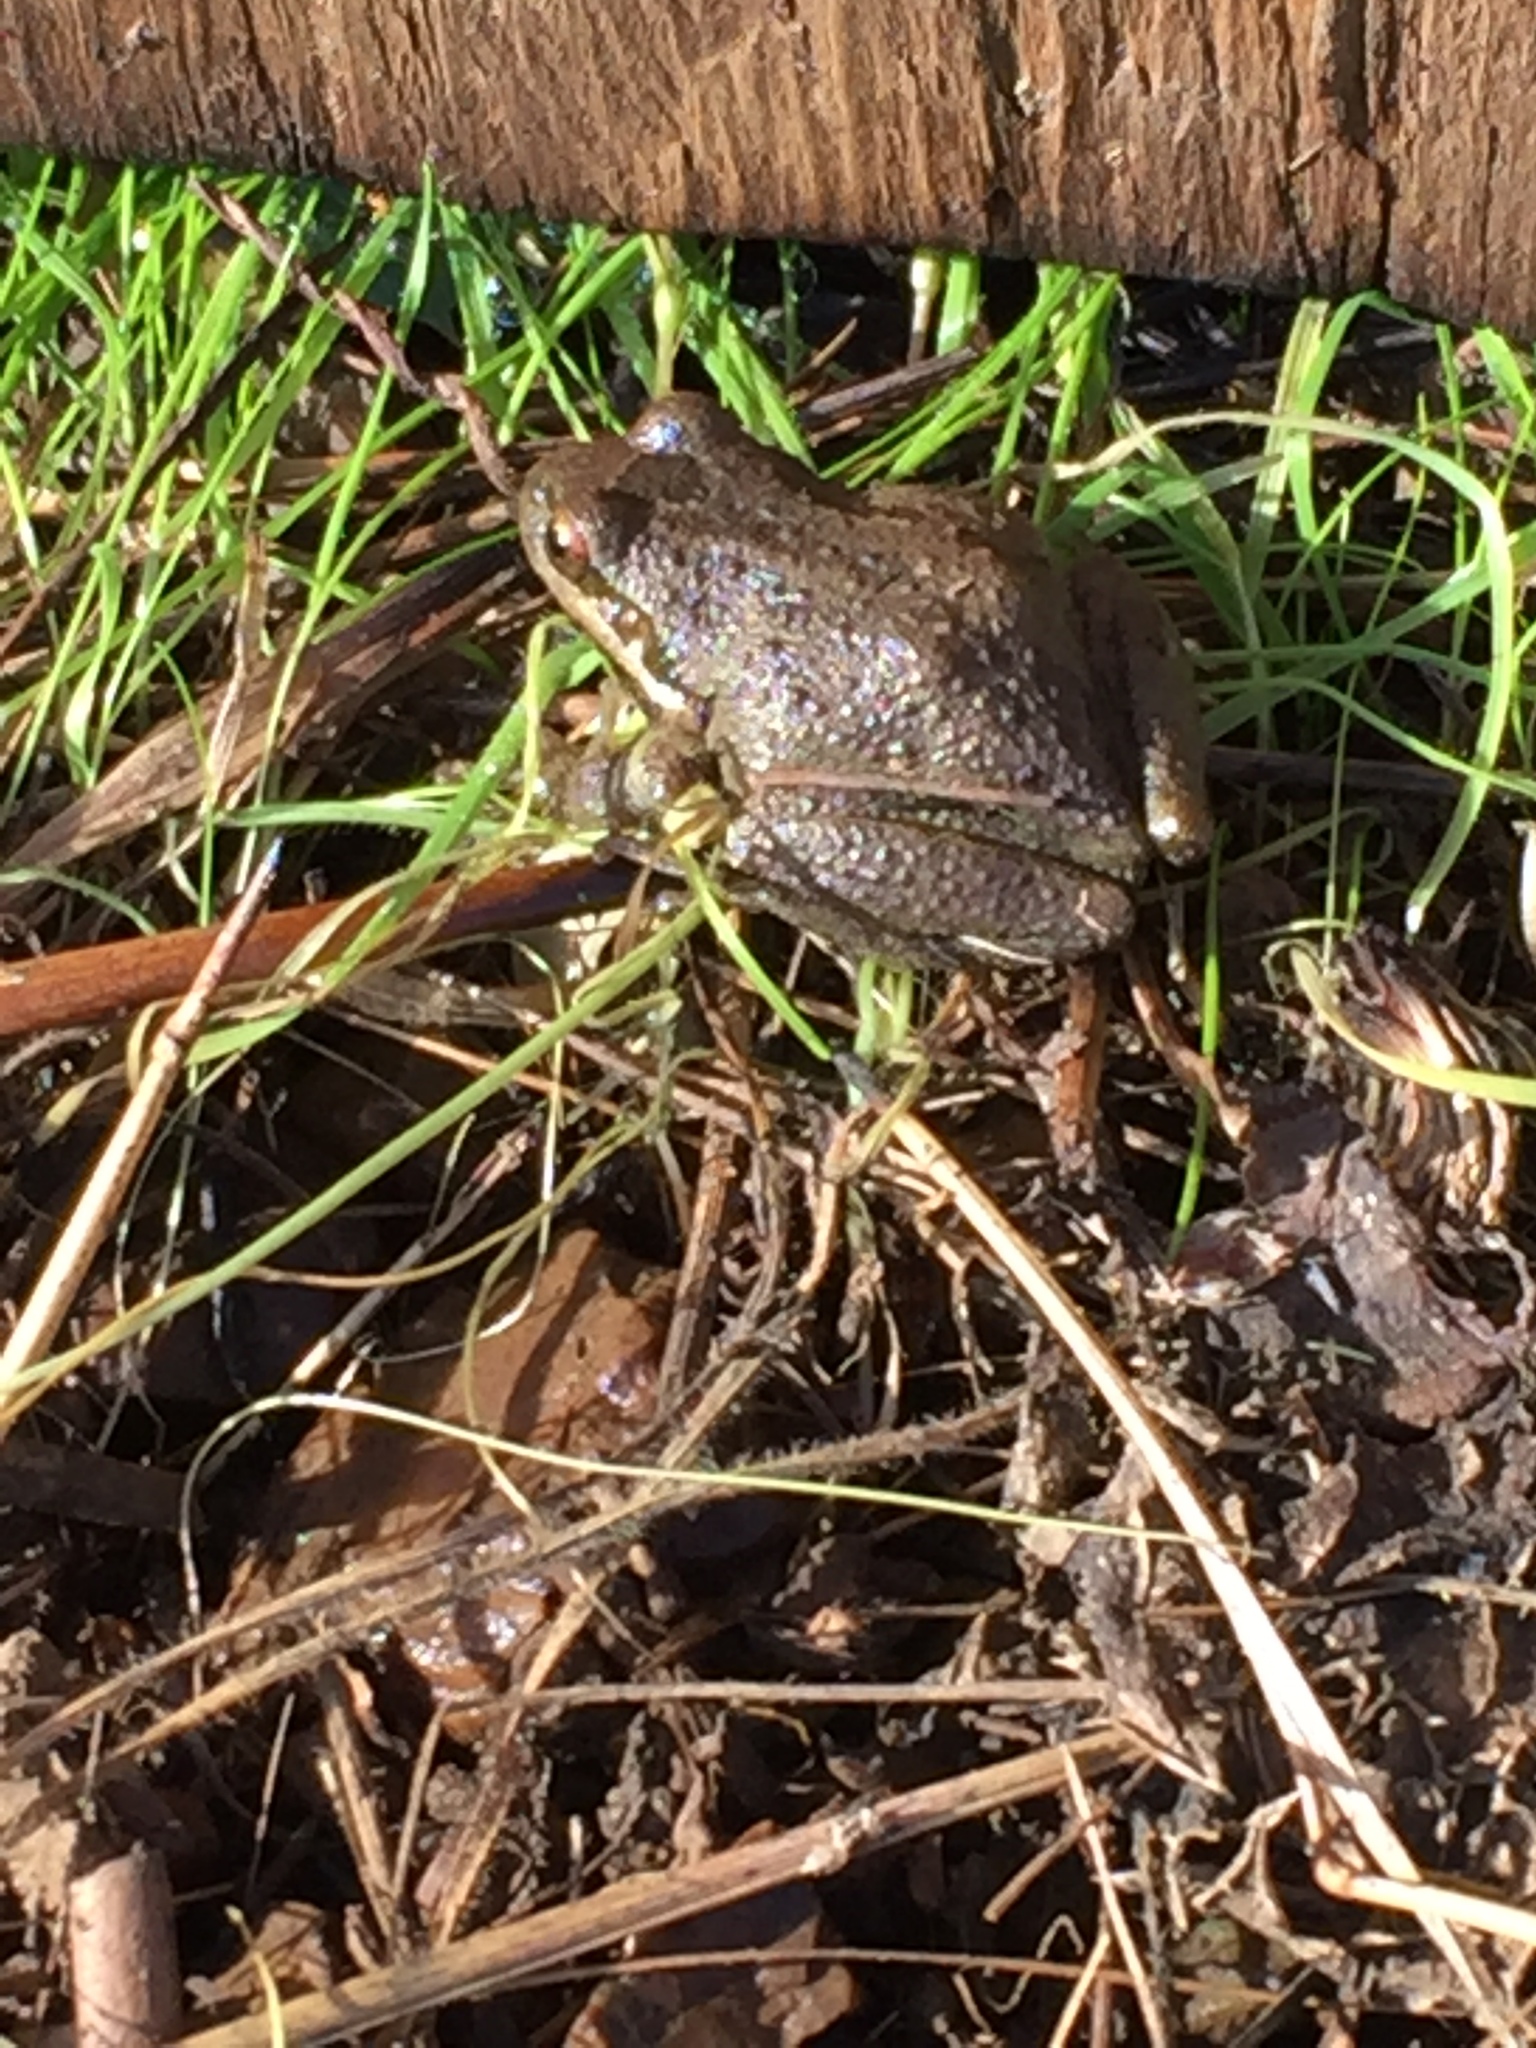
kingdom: Animalia
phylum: Chordata
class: Amphibia
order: Anura
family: Hylidae
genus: Pseudacris
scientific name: Pseudacris regilla
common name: Pacific chorus frog
